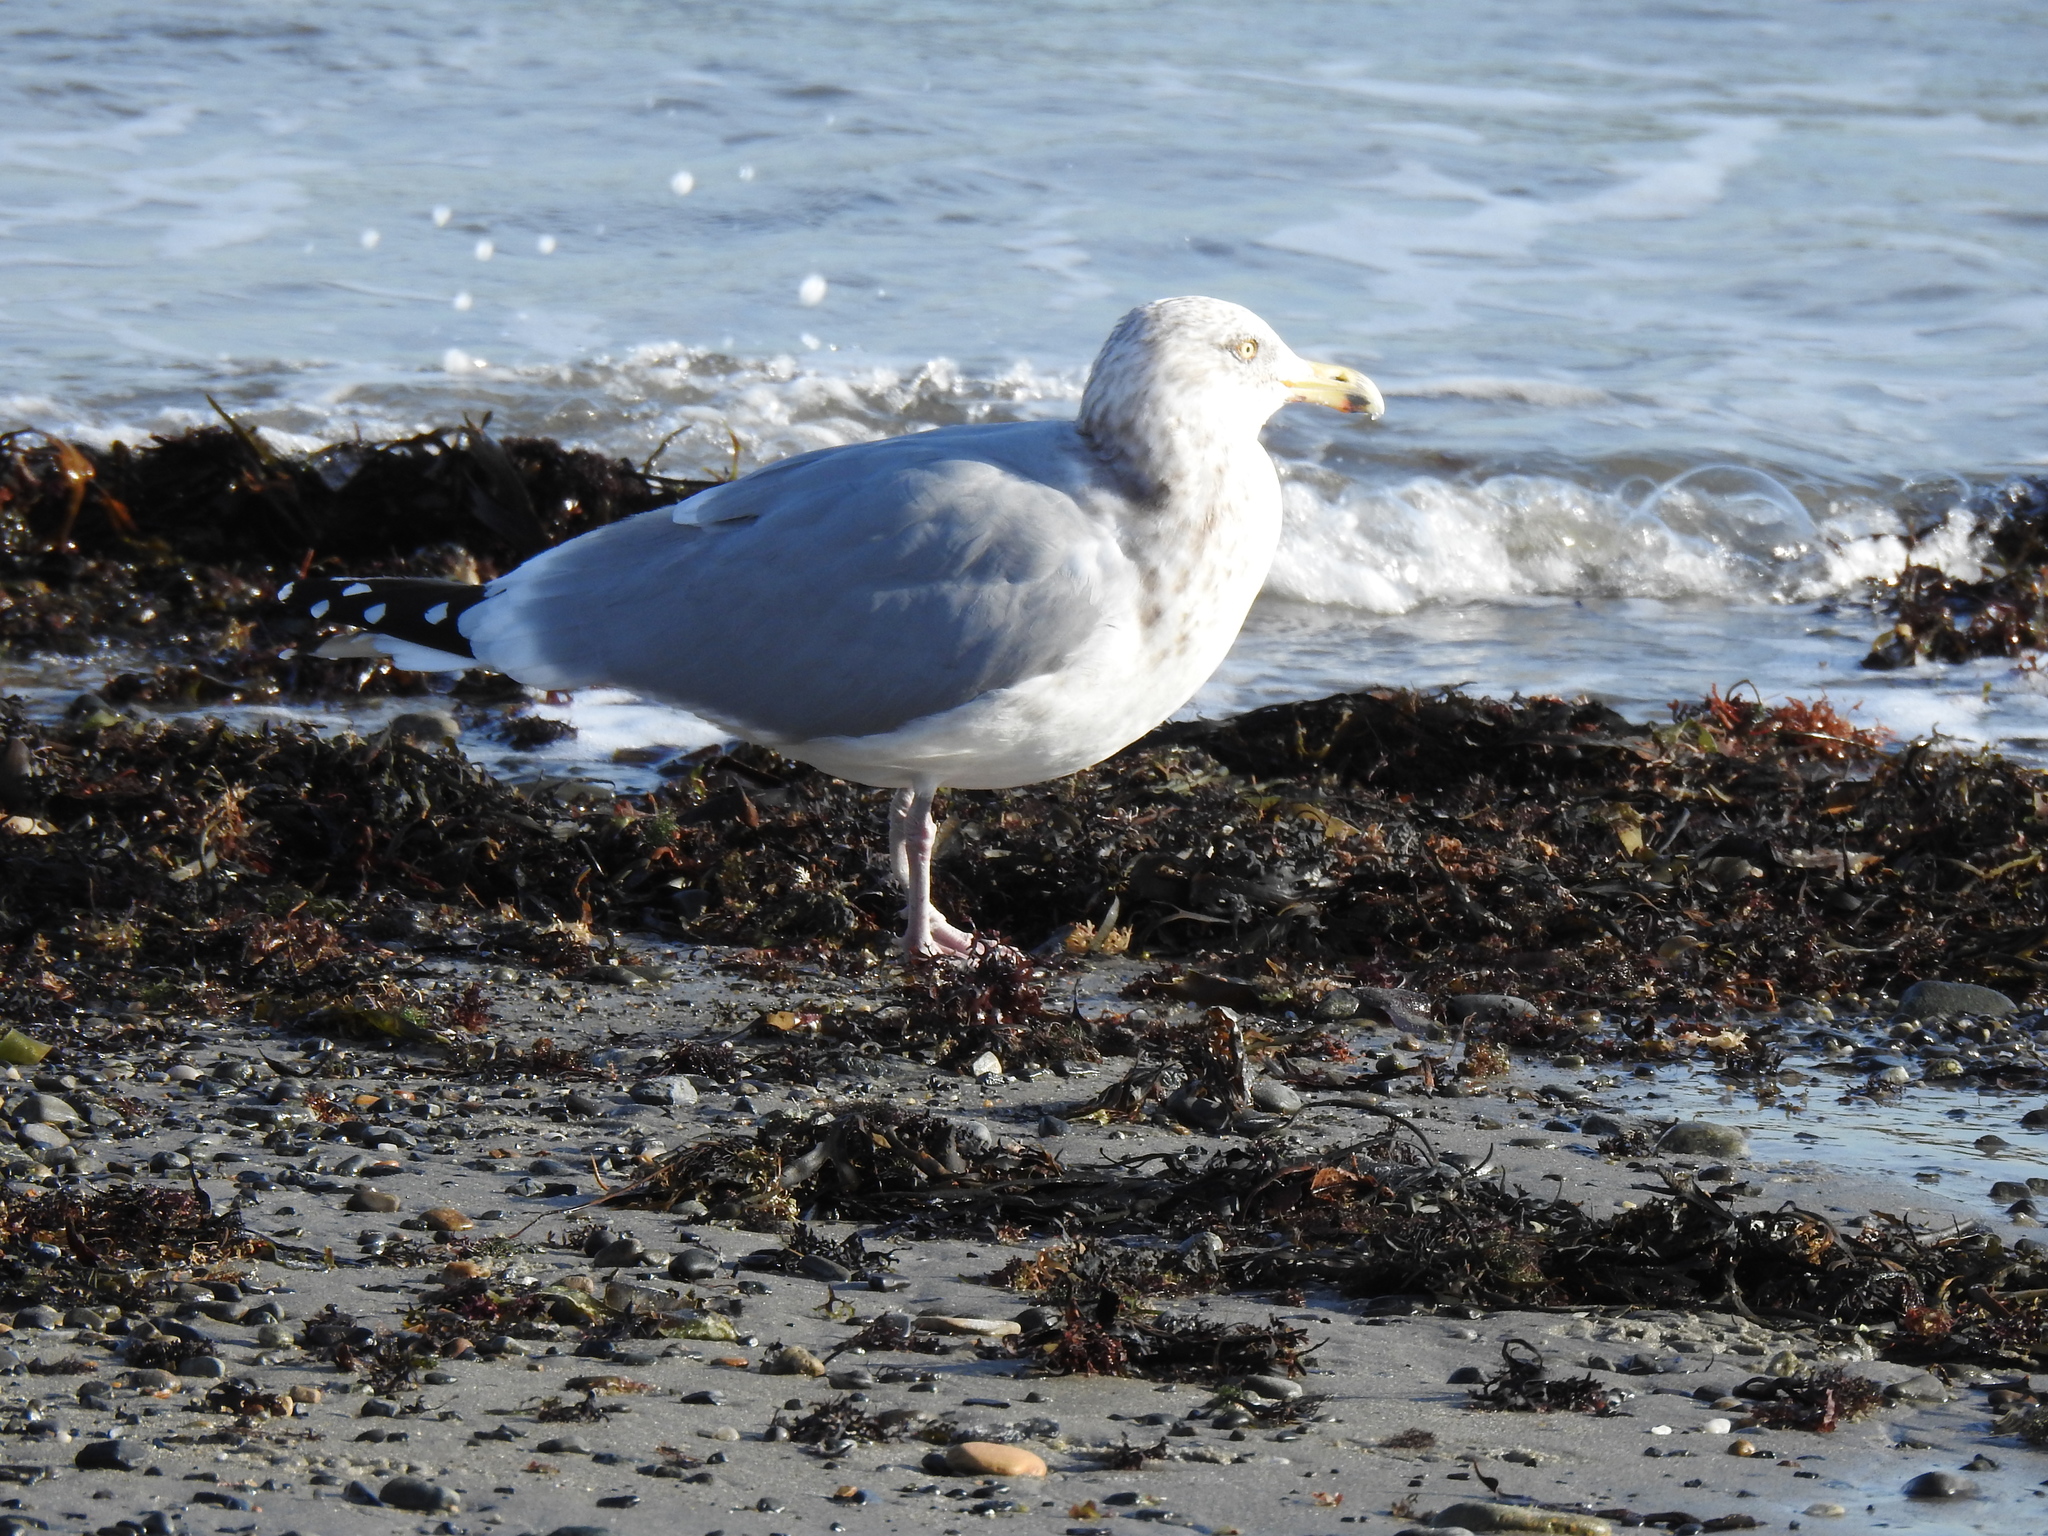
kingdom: Animalia
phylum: Chordata
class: Aves
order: Charadriiformes
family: Laridae
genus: Larus
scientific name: Larus argentatus
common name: Herring gull
